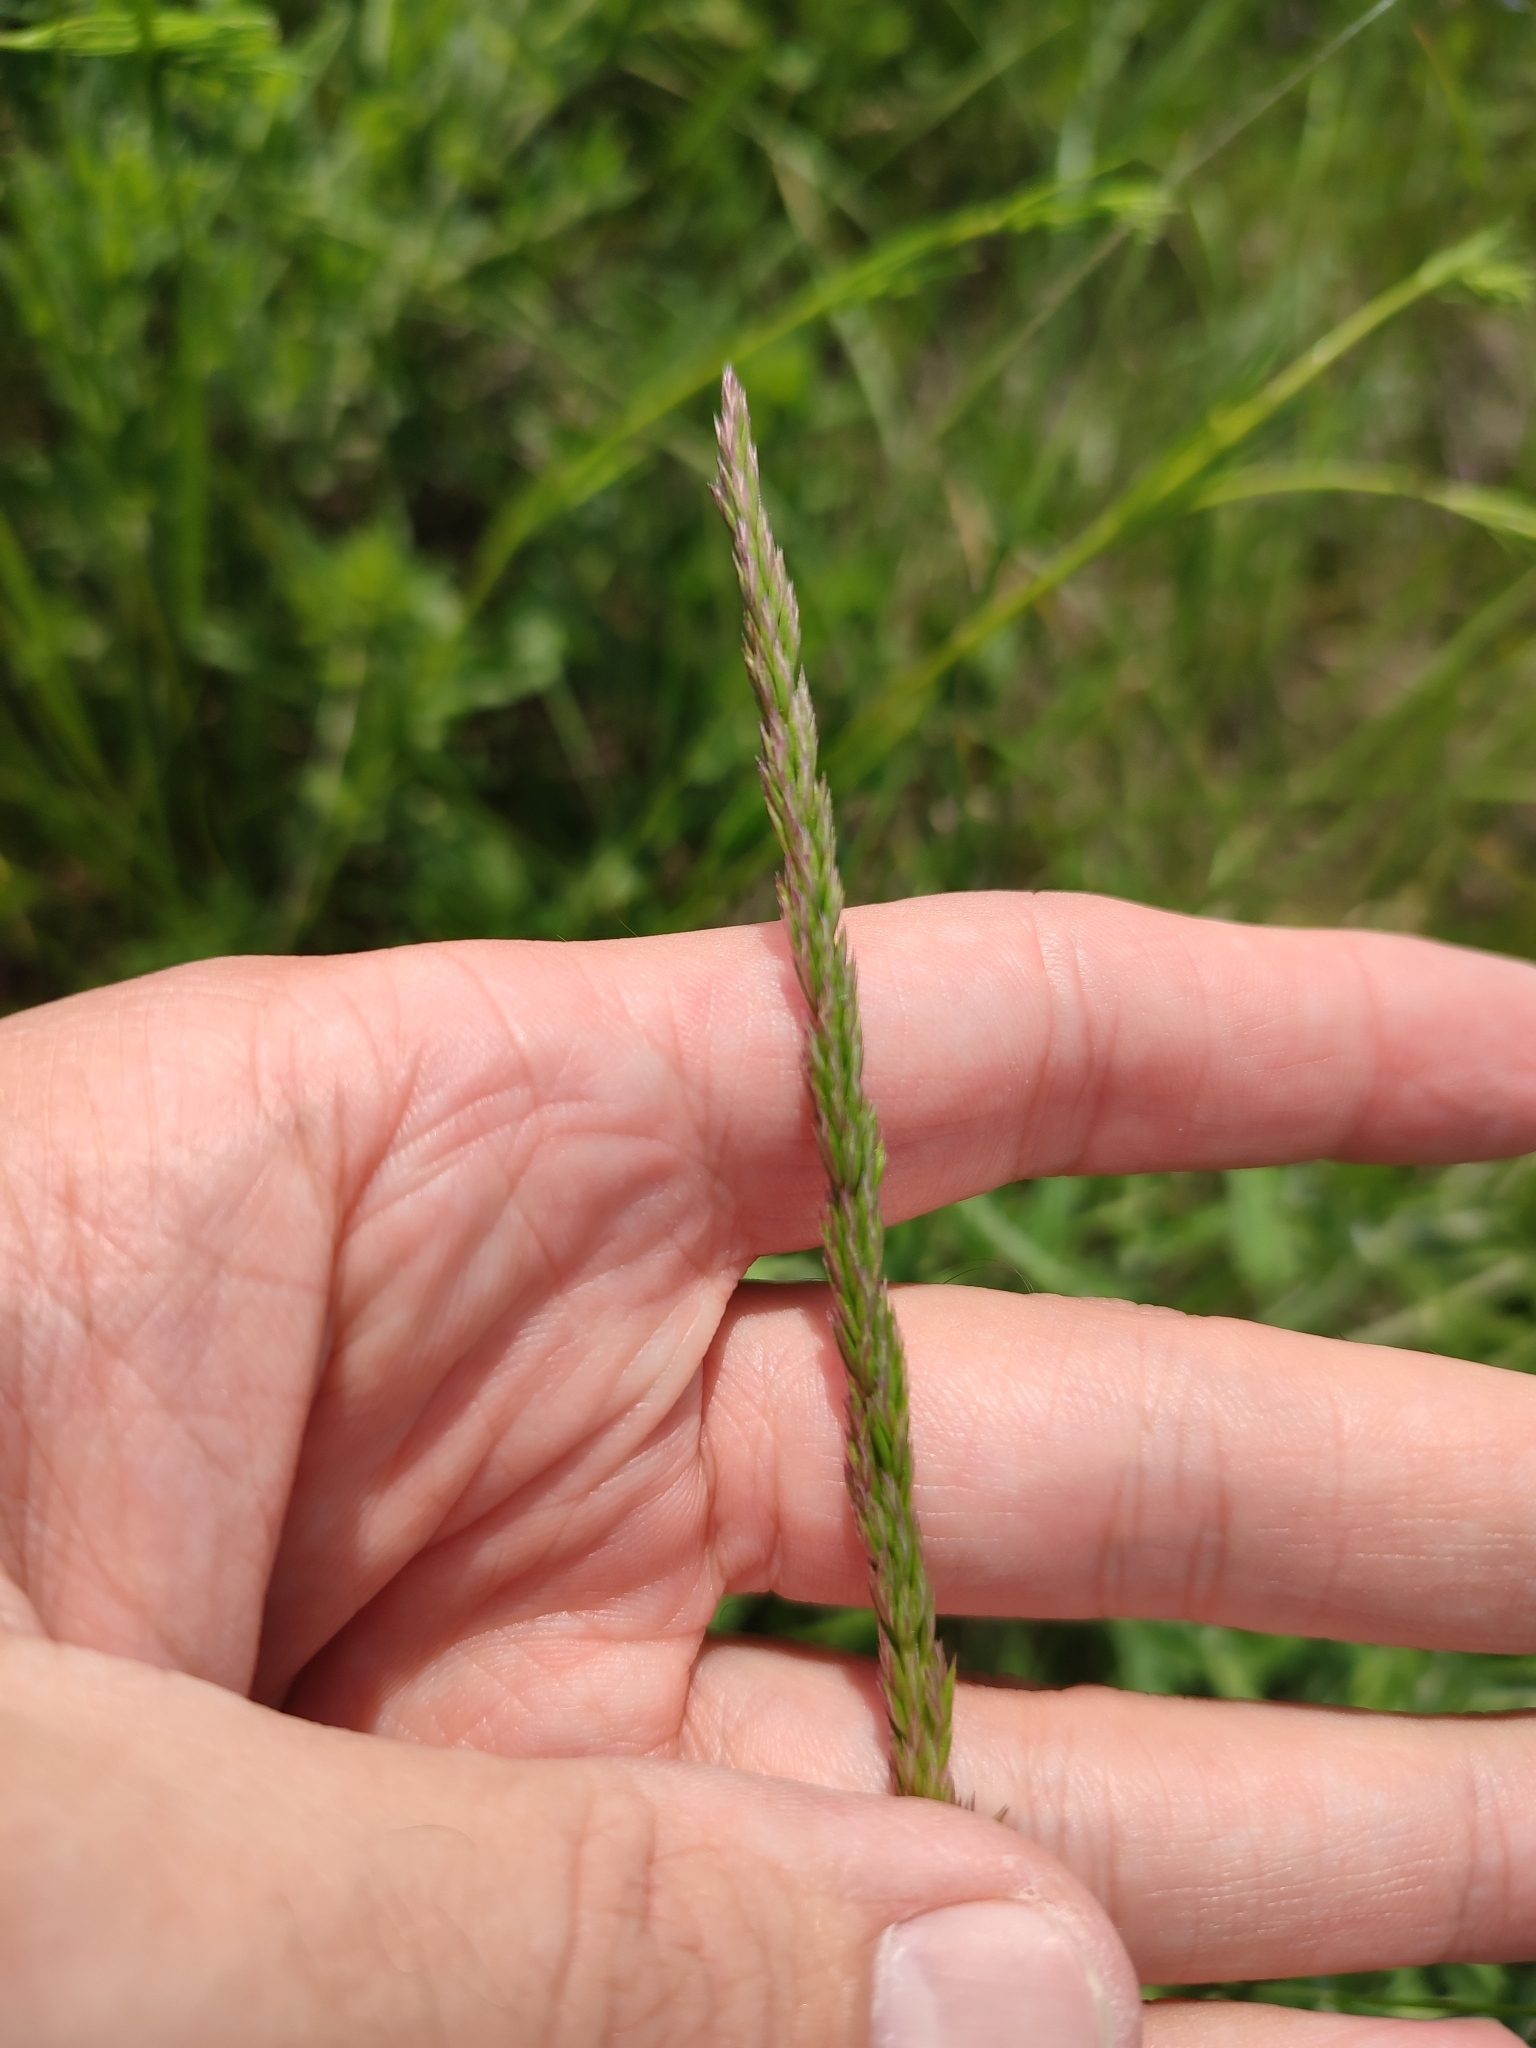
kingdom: Plantae
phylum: Tracheophyta
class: Liliopsida
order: Poales
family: Poaceae
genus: Koeleria
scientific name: Koeleria macrantha
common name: Crested hair-grass
